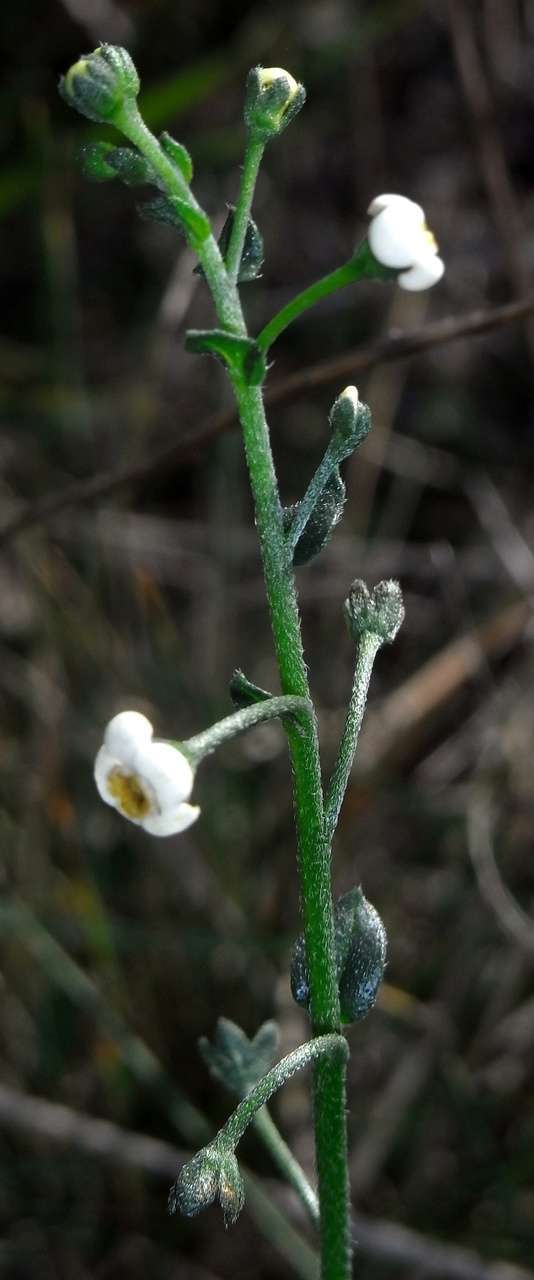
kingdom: Plantae
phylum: Tracheophyta
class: Magnoliopsida
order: Boraginales
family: Boraginaceae
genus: Hackelia
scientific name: Hackelia suaveolens
